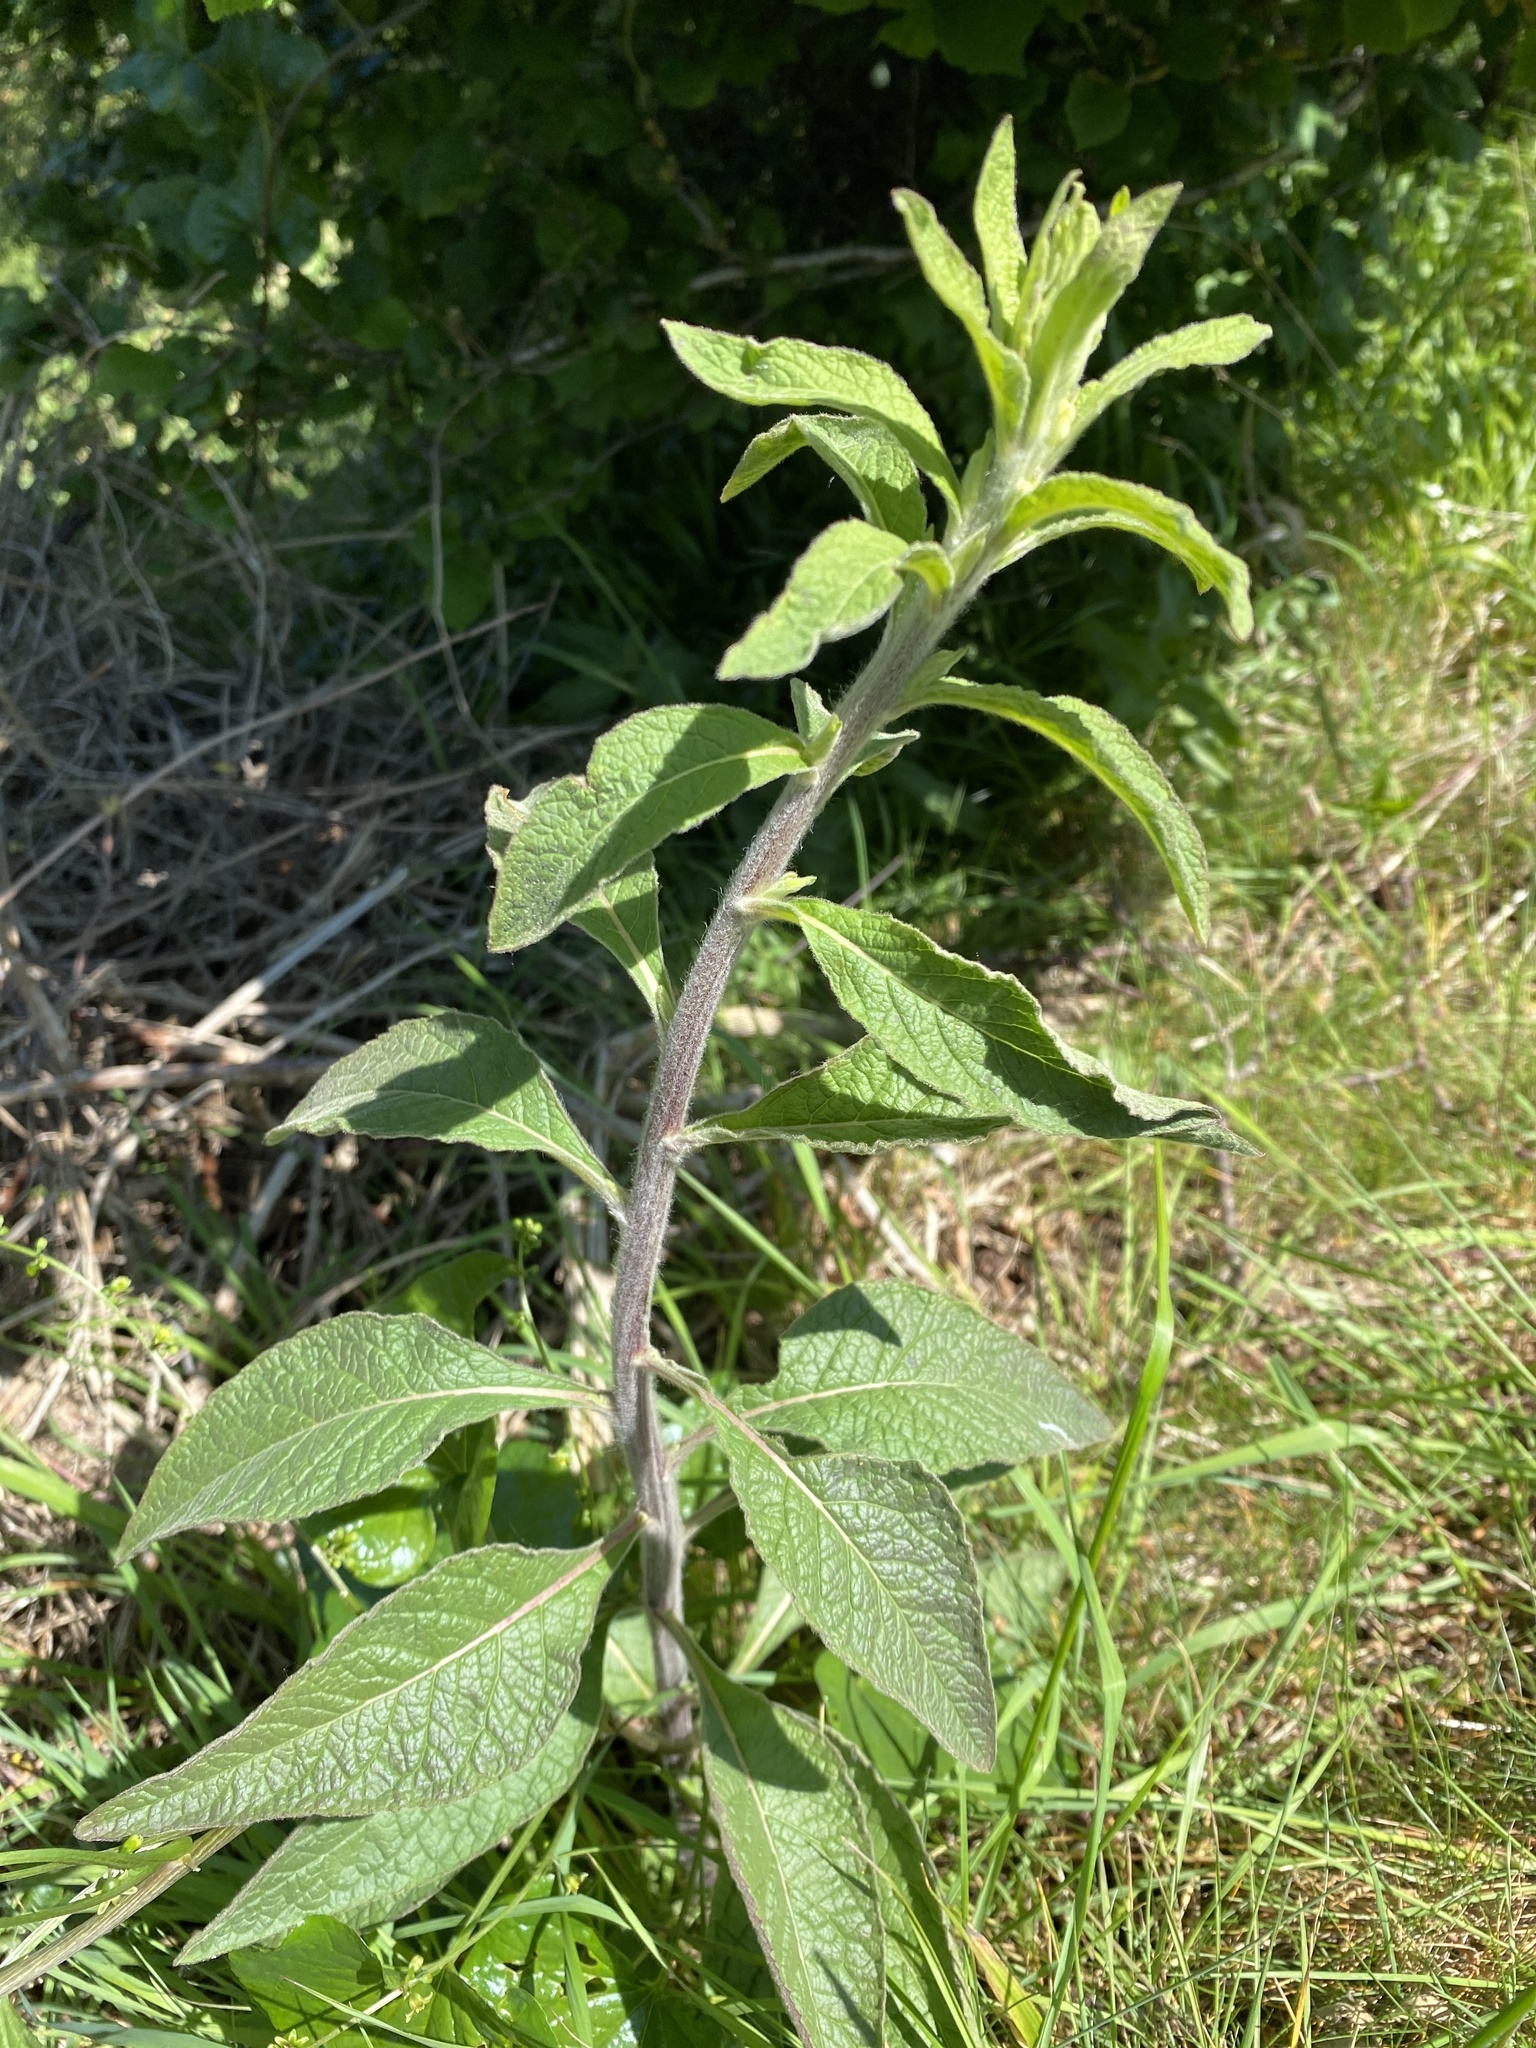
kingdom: Plantae
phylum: Tracheophyta
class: Magnoliopsida
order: Asterales
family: Asteraceae
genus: Pentanema
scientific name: Pentanema squarrosum
